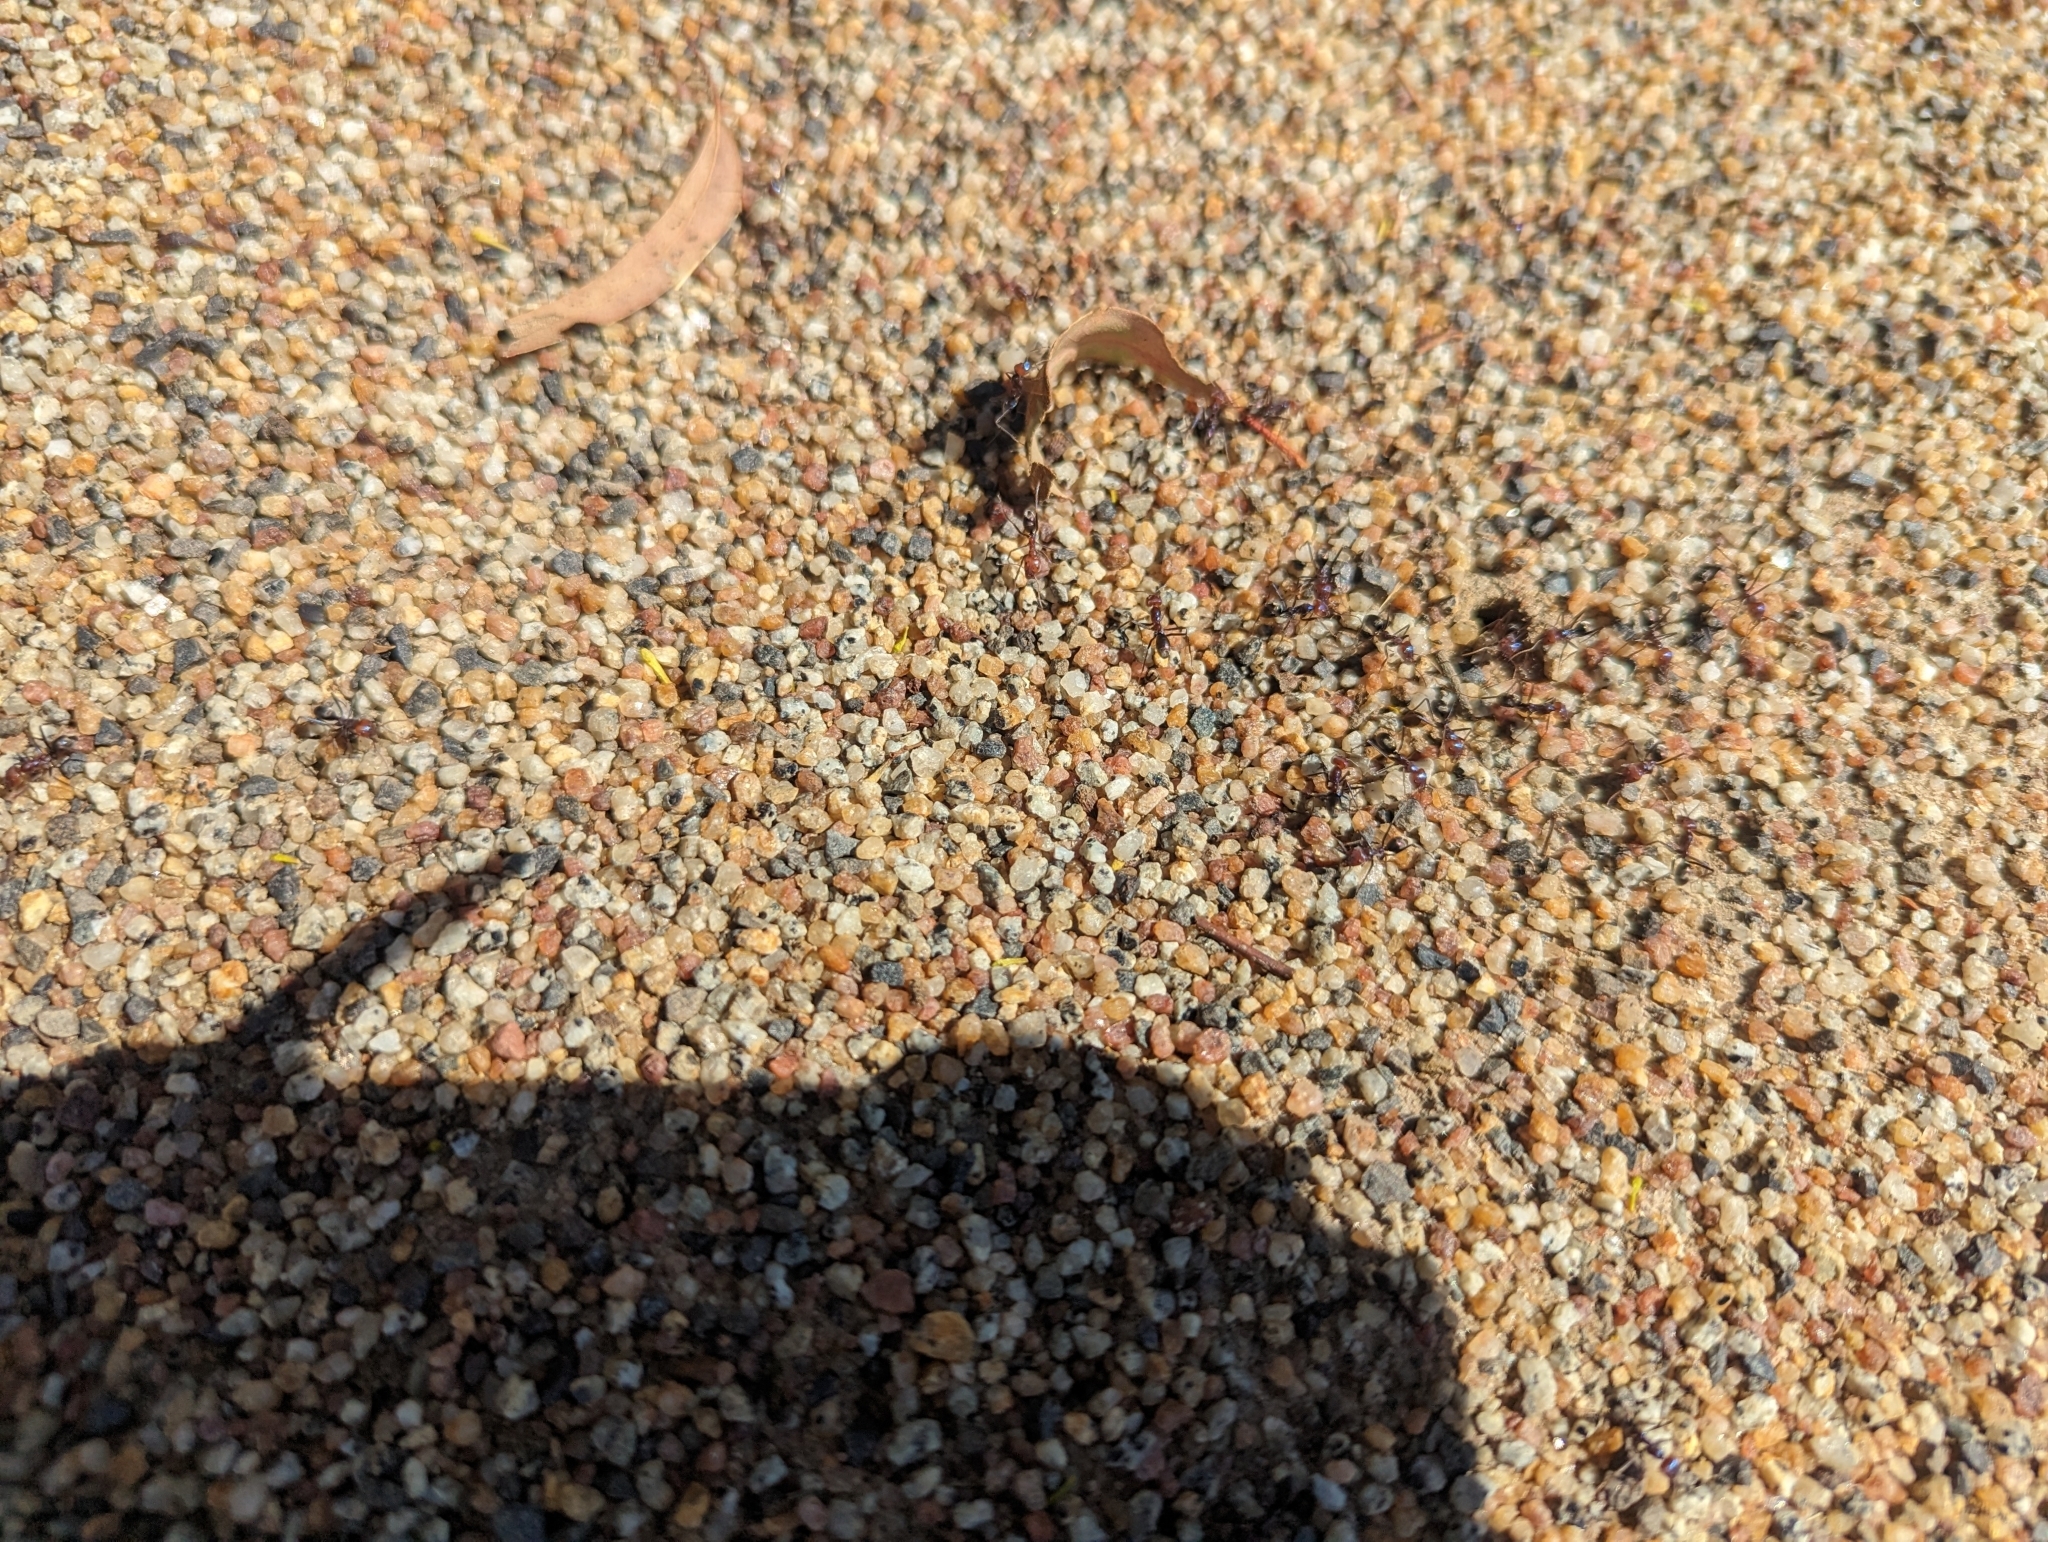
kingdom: Animalia
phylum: Arthropoda
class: Insecta
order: Hymenoptera
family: Formicidae
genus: Iridomyrmex
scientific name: Iridomyrmex purpureus
